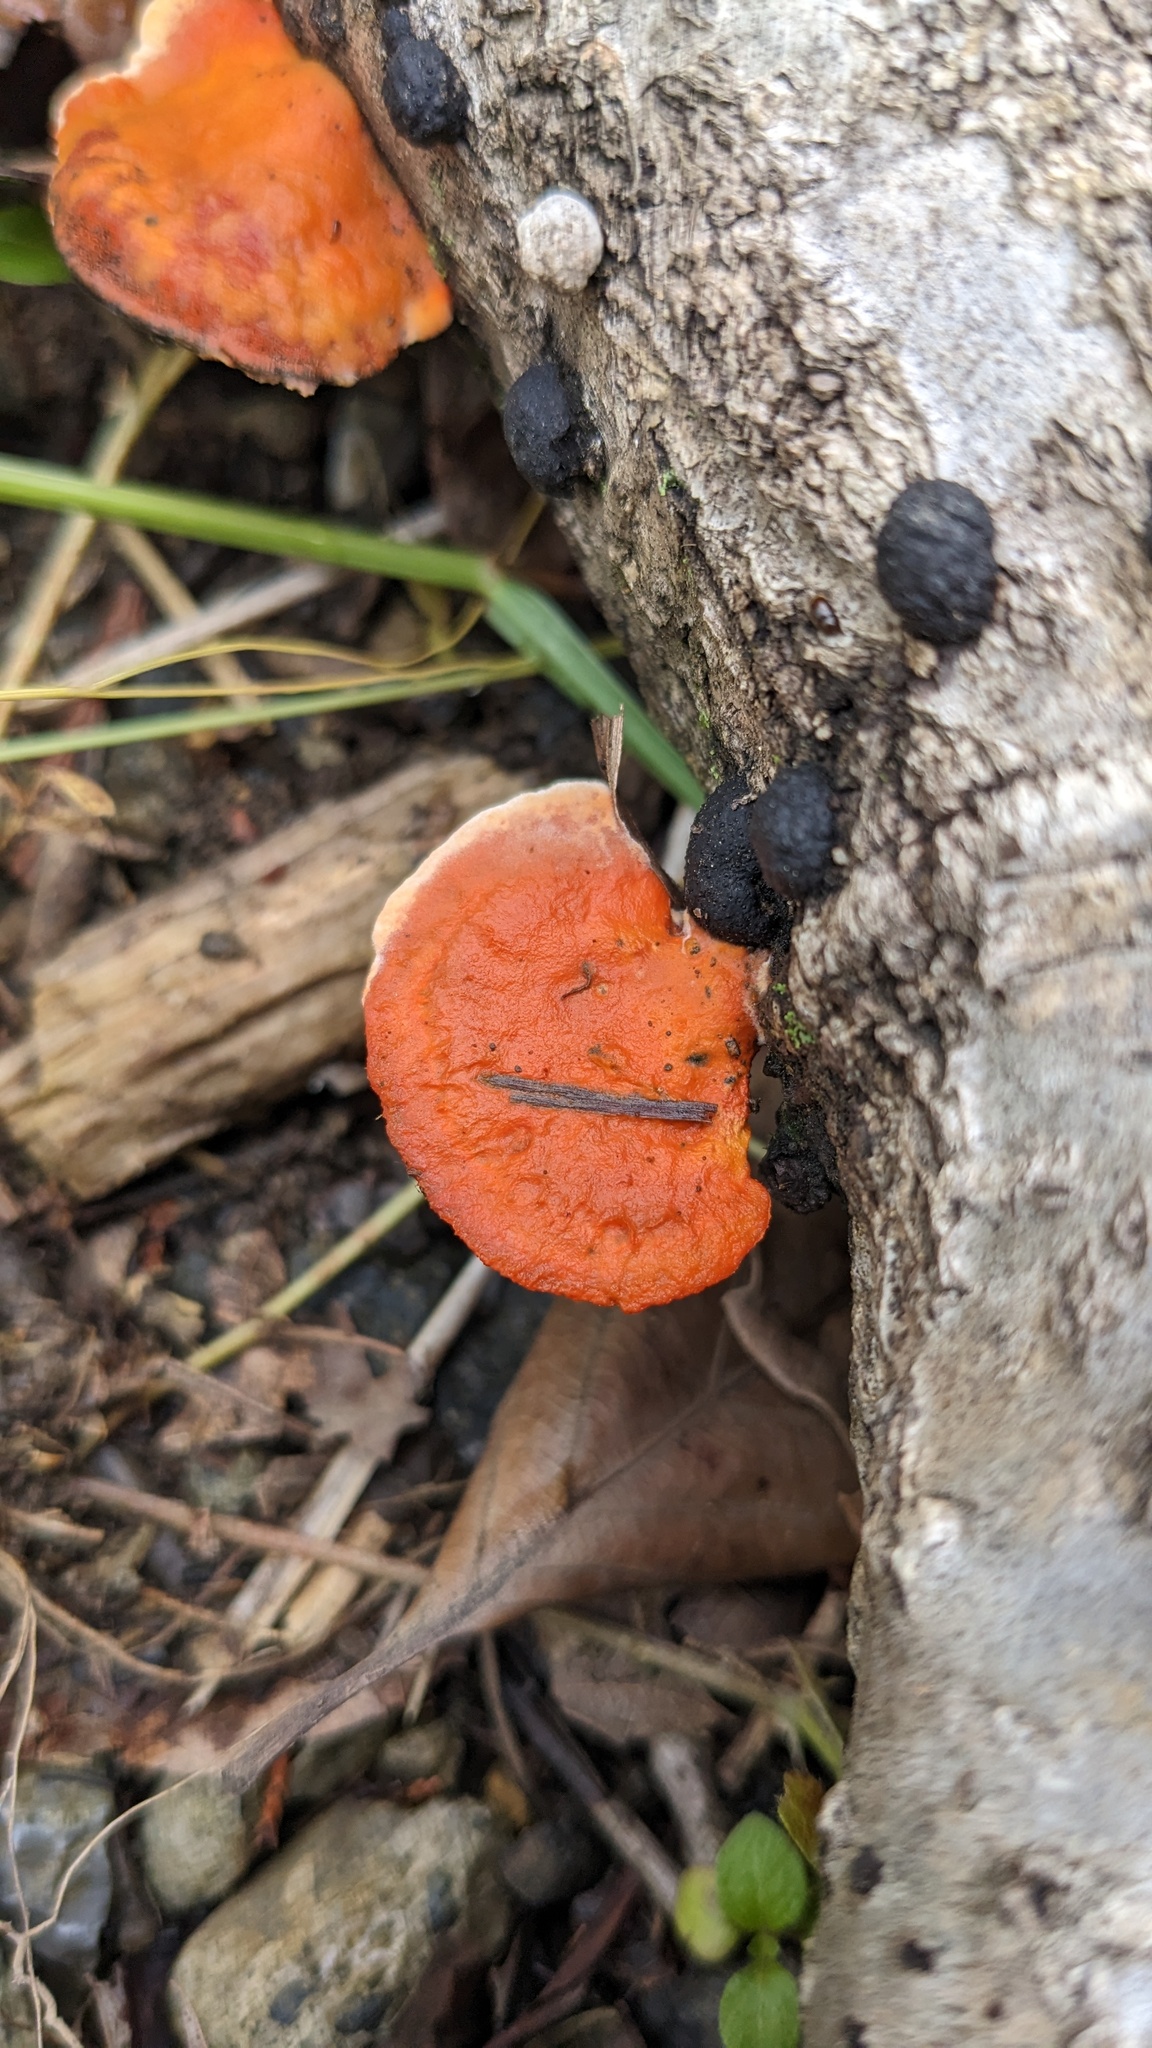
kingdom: Fungi
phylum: Basidiomycota
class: Agaricomycetes
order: Polyporales
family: Polyporaceae
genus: Trametes
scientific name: Trametes coccinea
